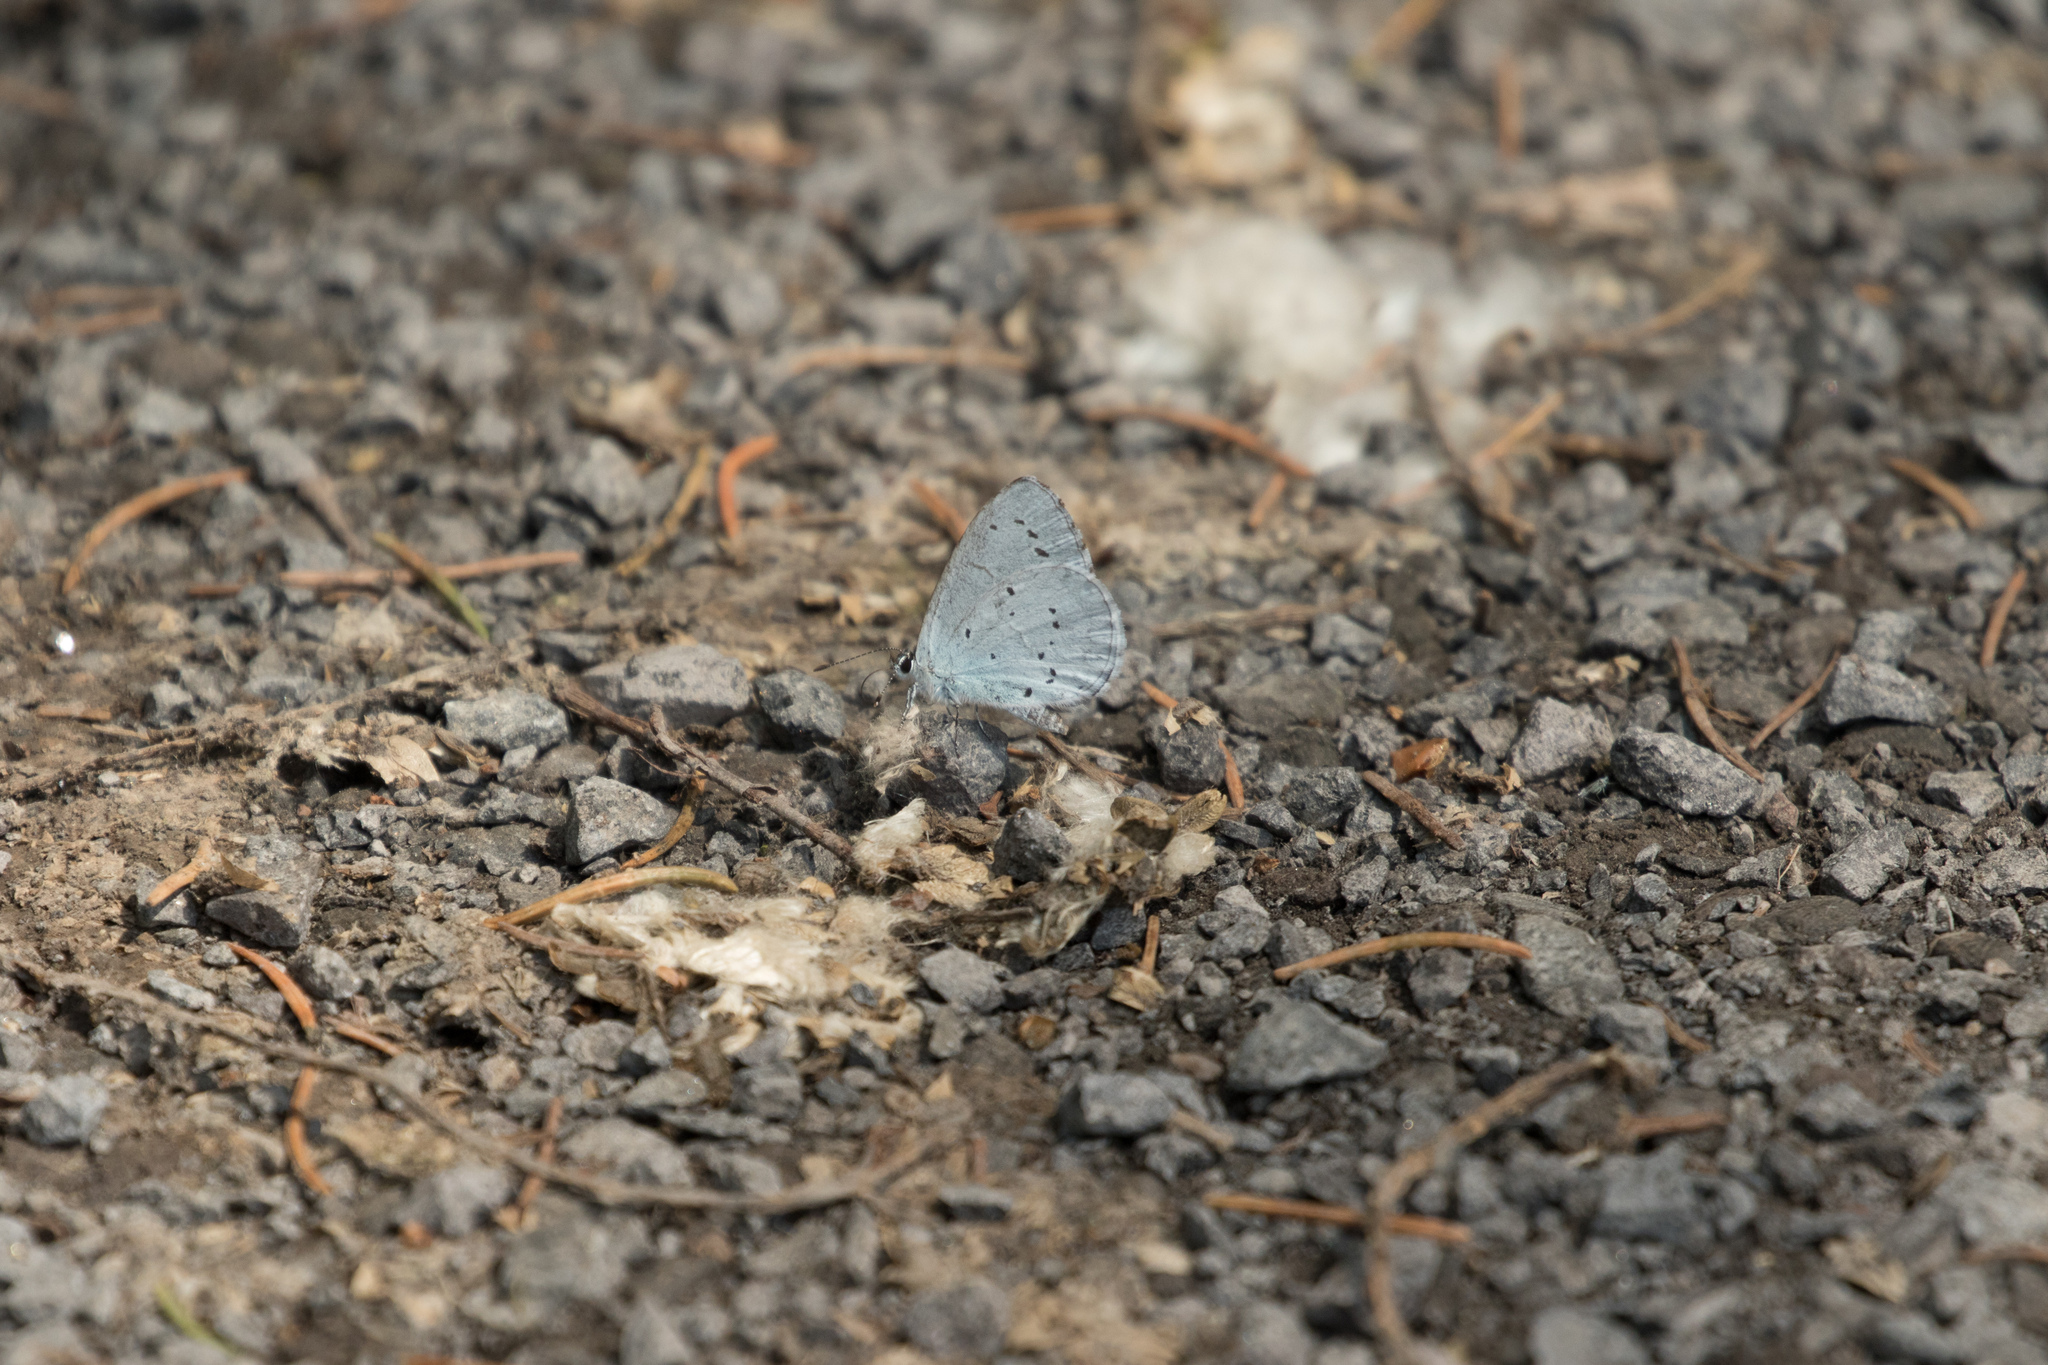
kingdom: Animalia
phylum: Arthropoda
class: Insecta
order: Lepidoptera
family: Lycaenidae
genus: Celastrina
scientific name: Celastrina argiolus
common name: Holly blue
